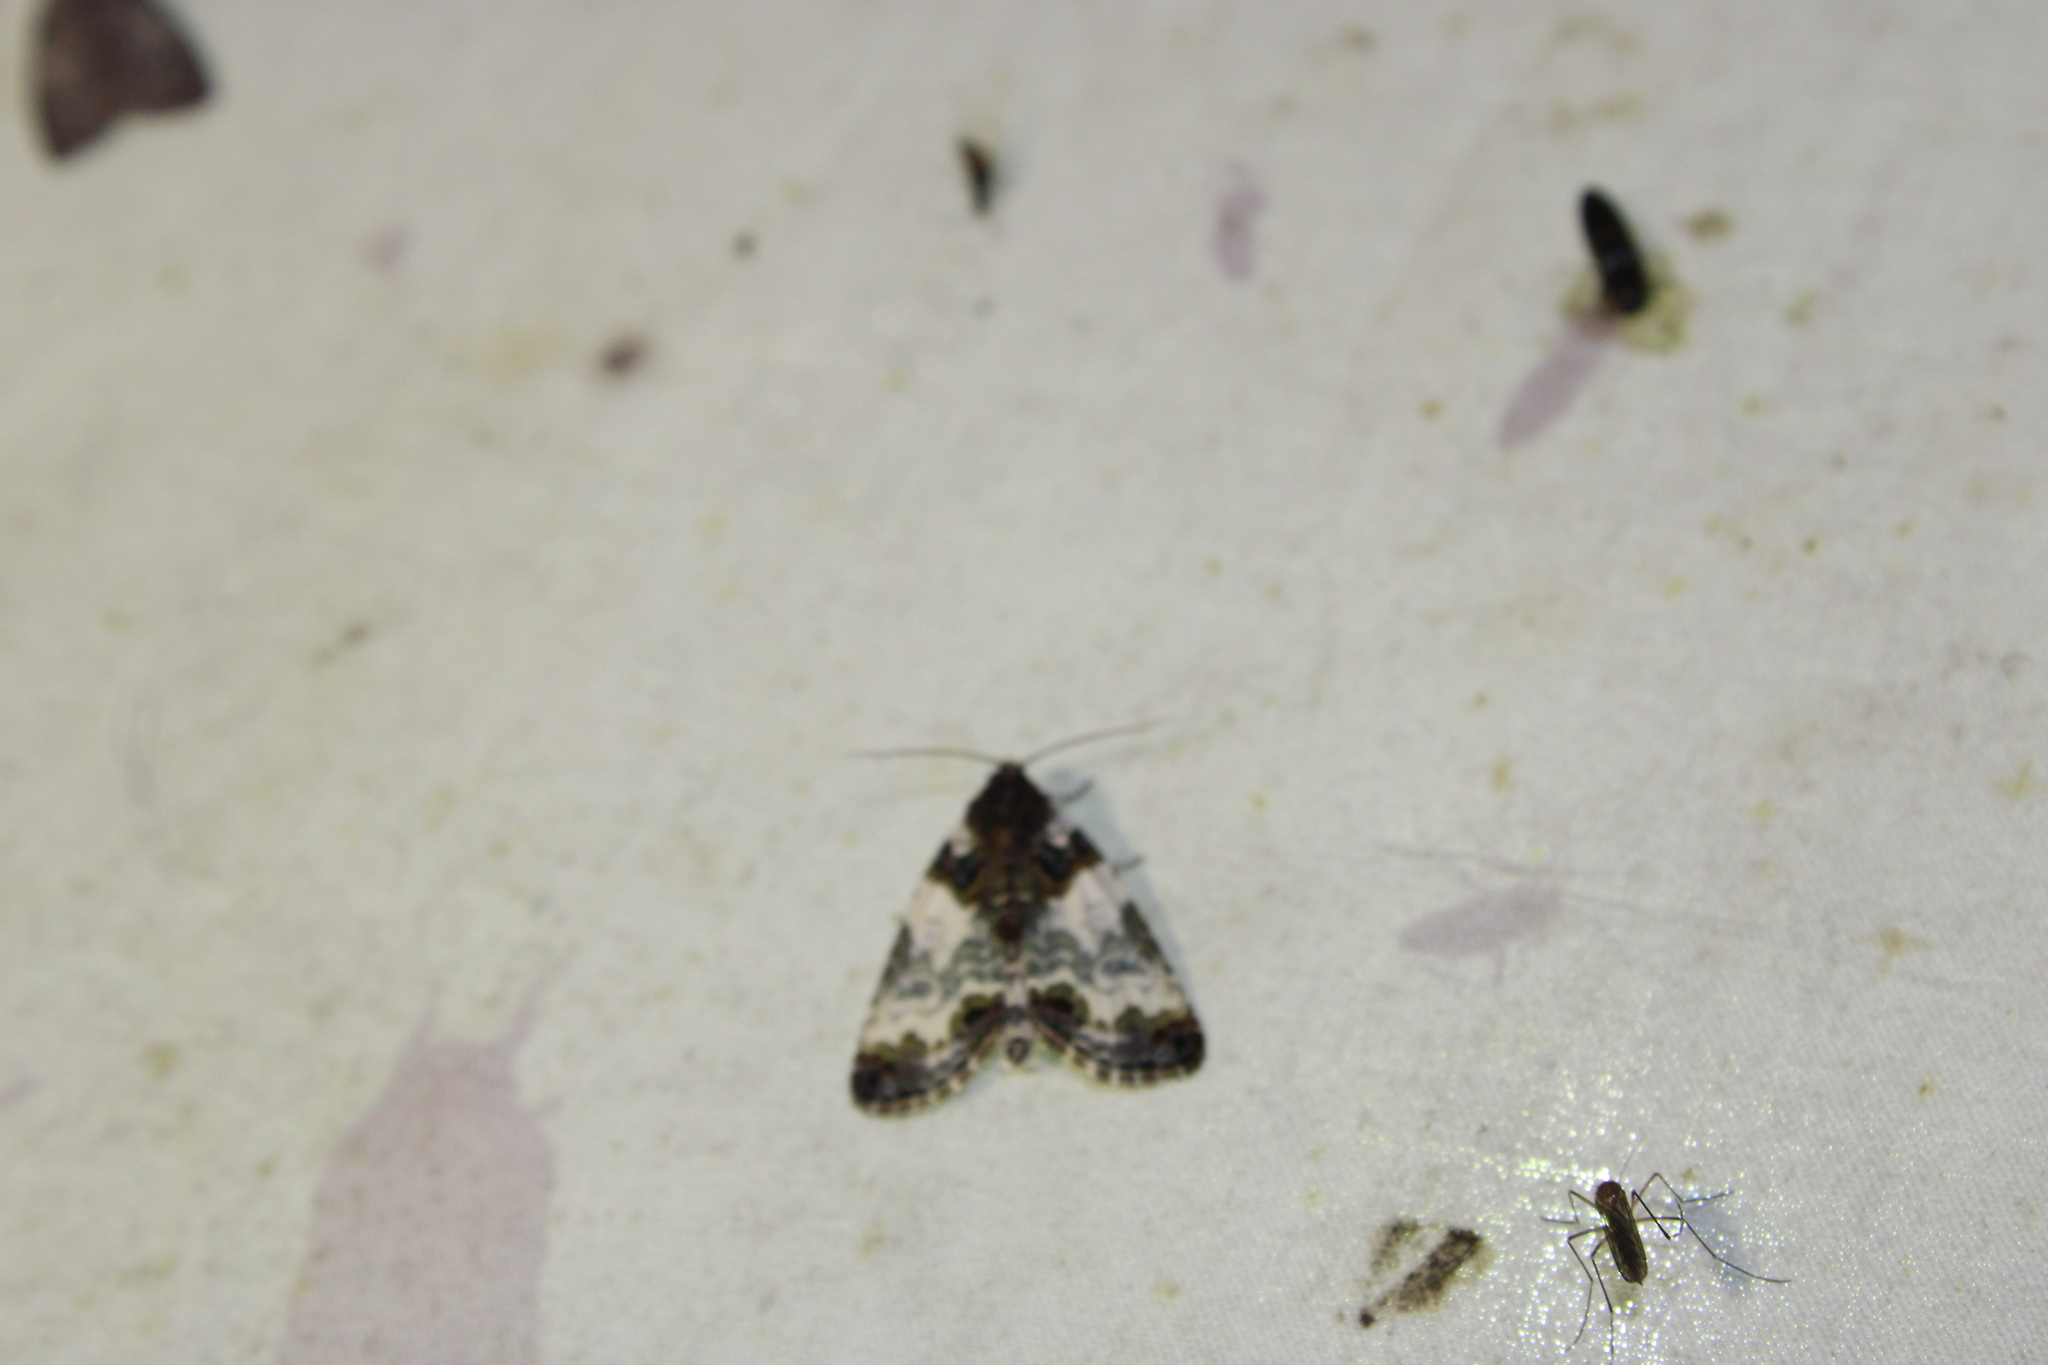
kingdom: Animalia
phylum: Arthropoda
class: Insecta
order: Lepidoptera
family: Noctuidae
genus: Cerma
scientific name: Cerma cerintha
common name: Tufted bird-dropping moth
